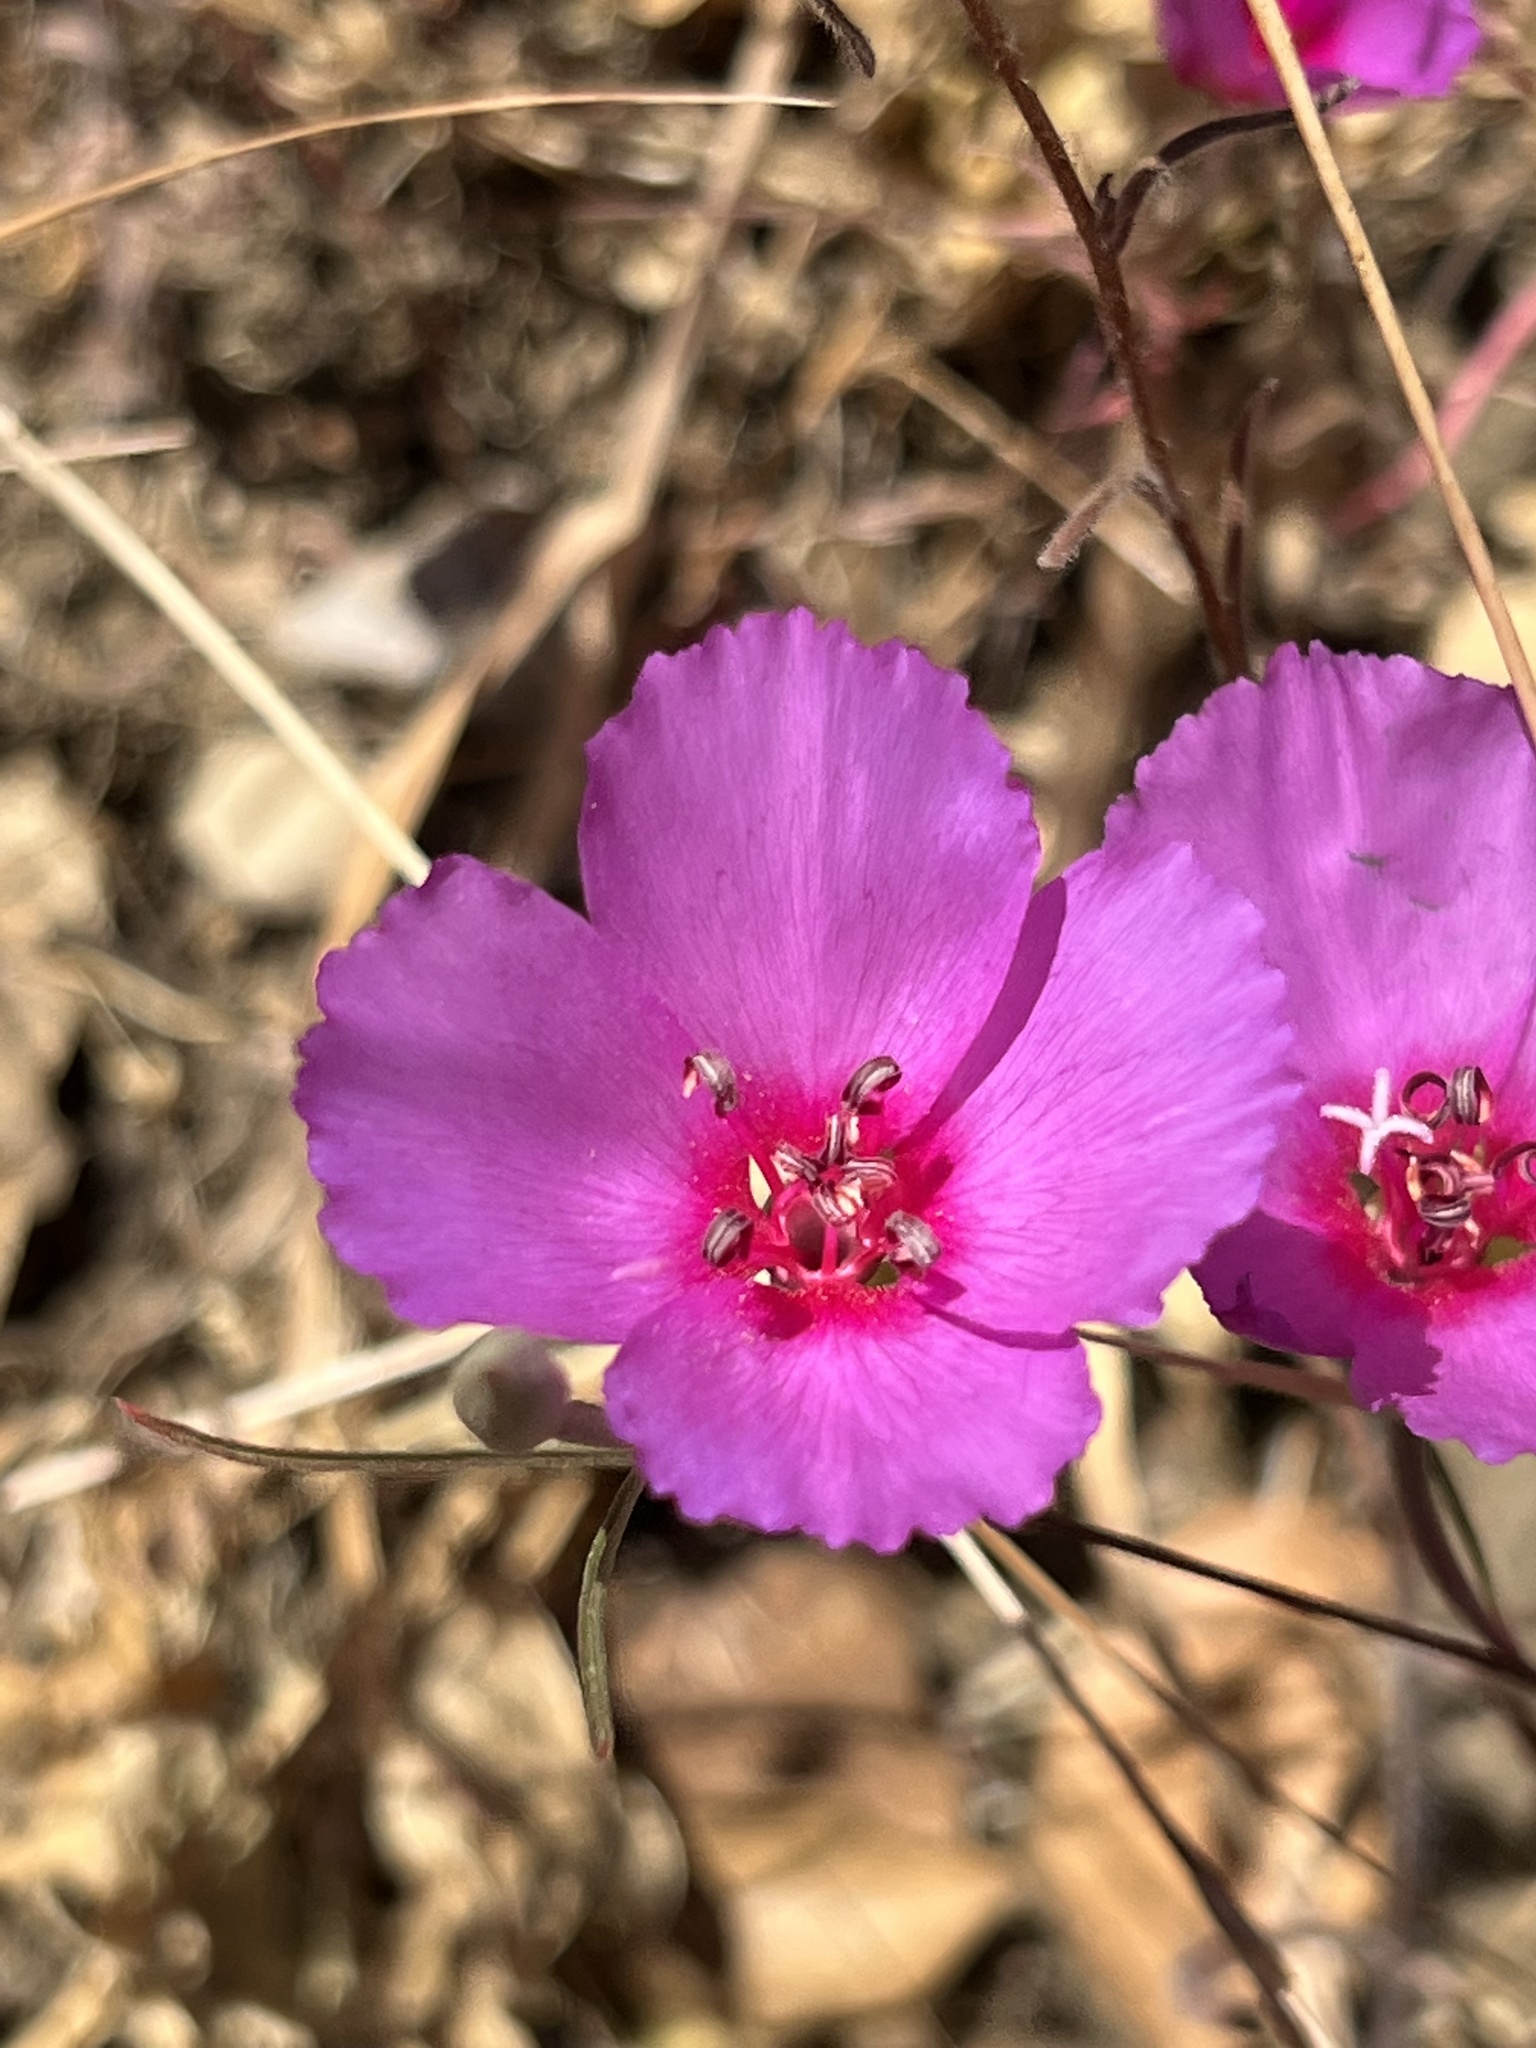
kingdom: Plantae
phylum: Tracheophyta
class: Magnoliopsida
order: Myrtales
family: Onagraceae
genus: Clarkia
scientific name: Clarkia rubicunda
